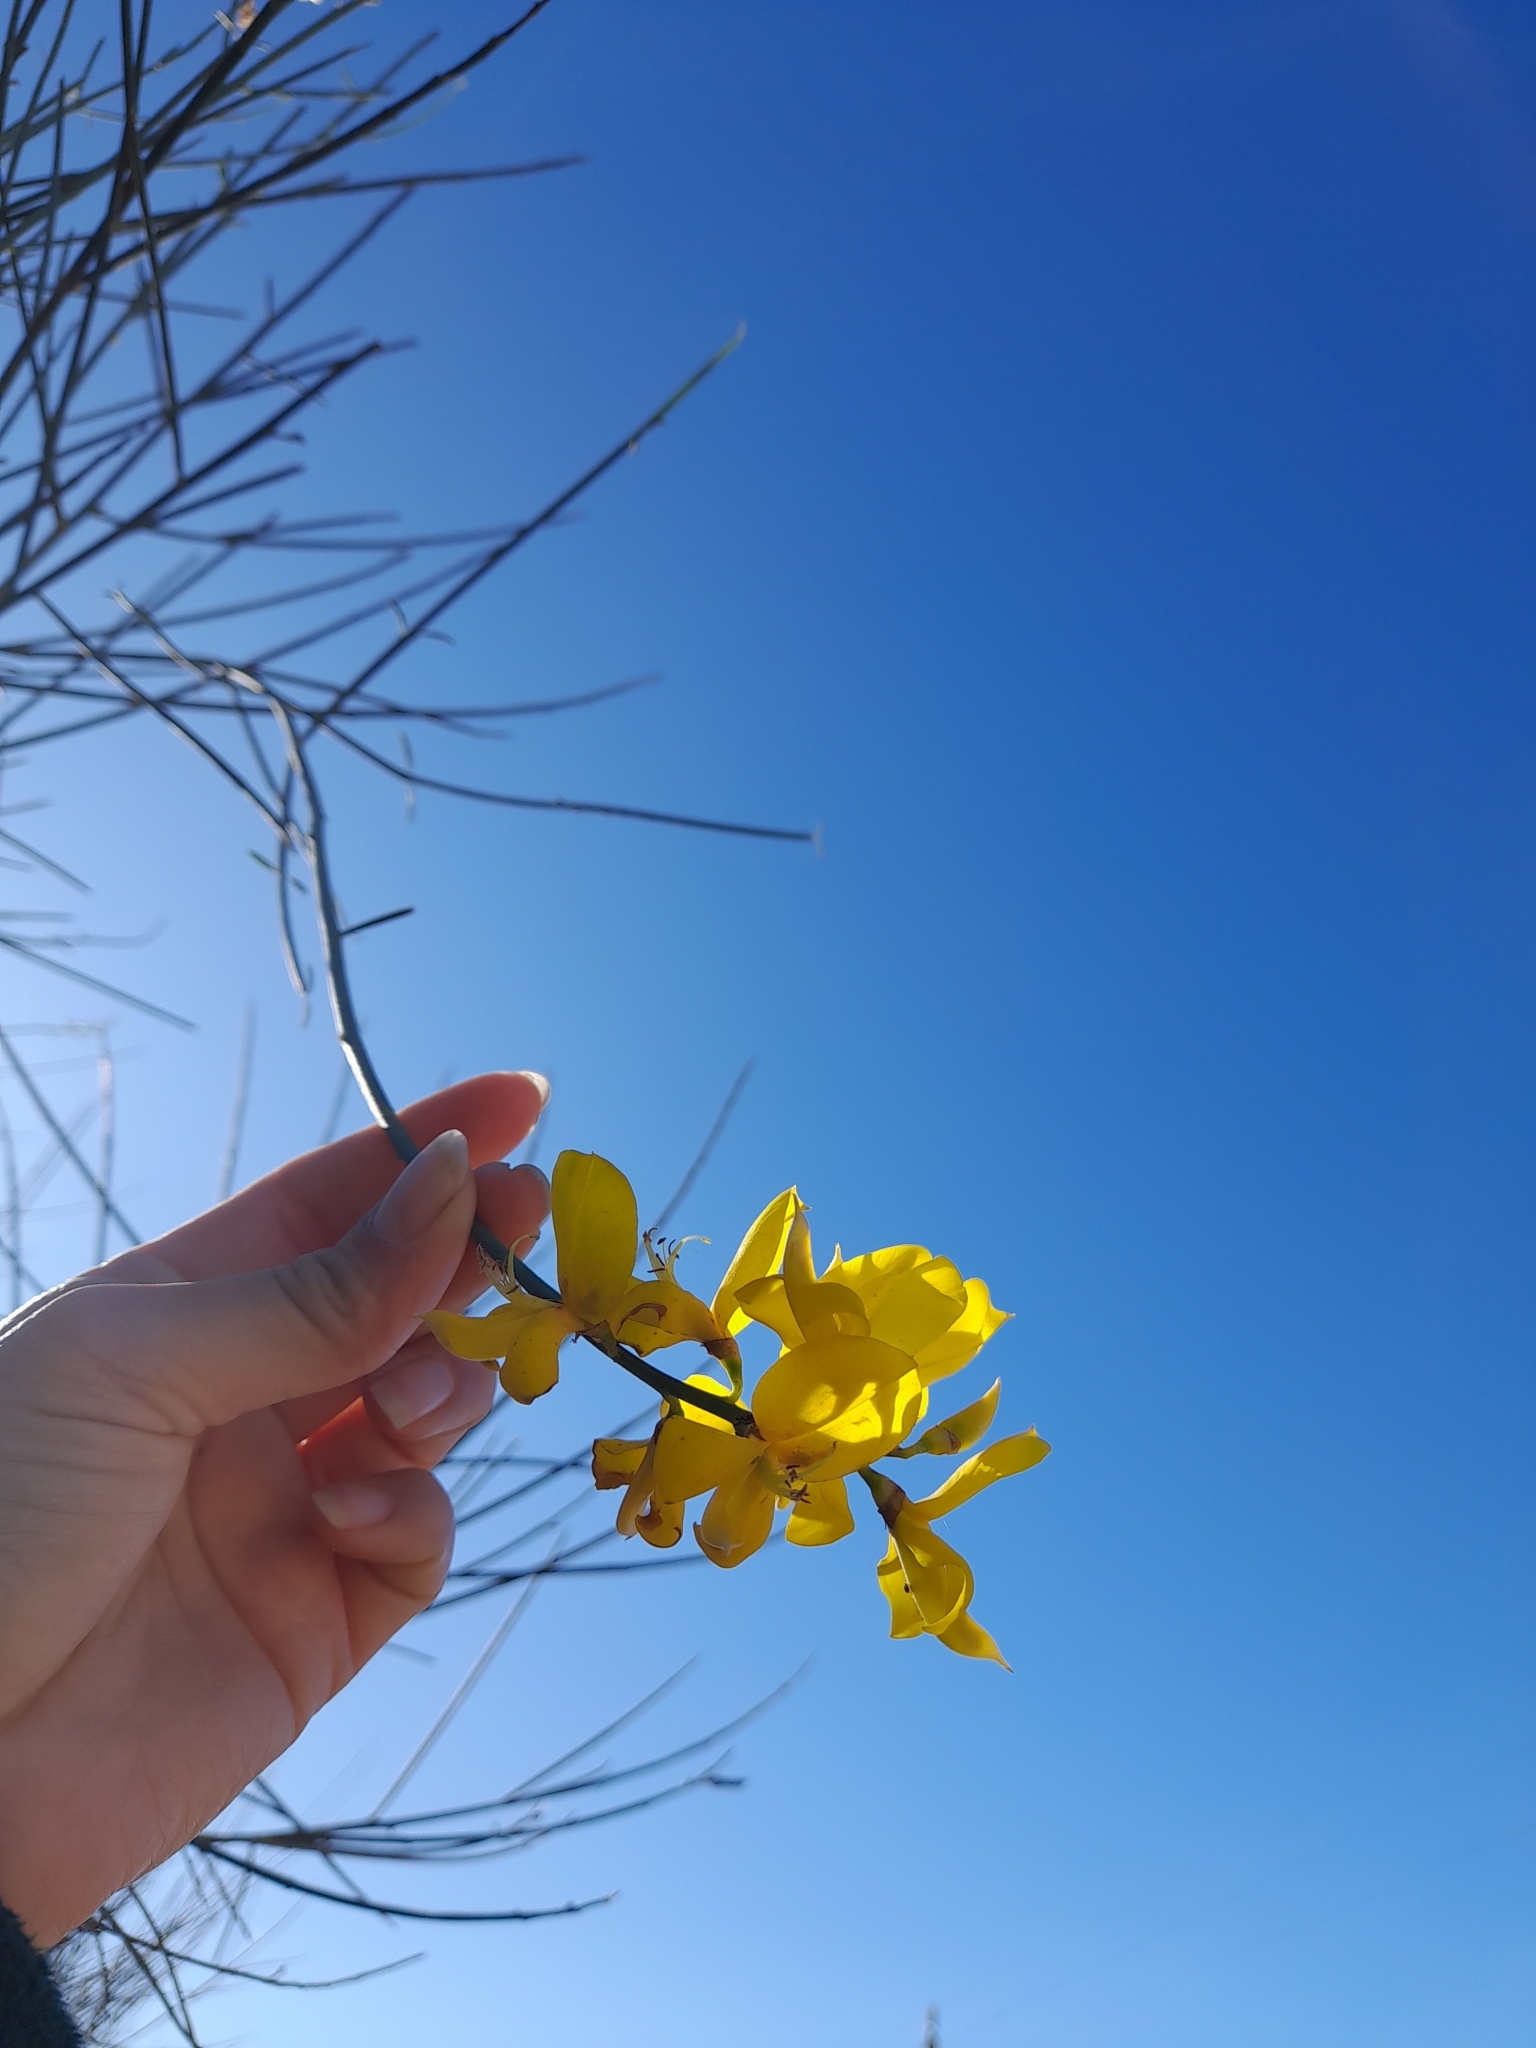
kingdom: Plantae
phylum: Tracheophyta
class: Magnoliopsida
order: Fabales
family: Fabaceae
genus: Spartium
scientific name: Spartium junceum
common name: Spanish broom
